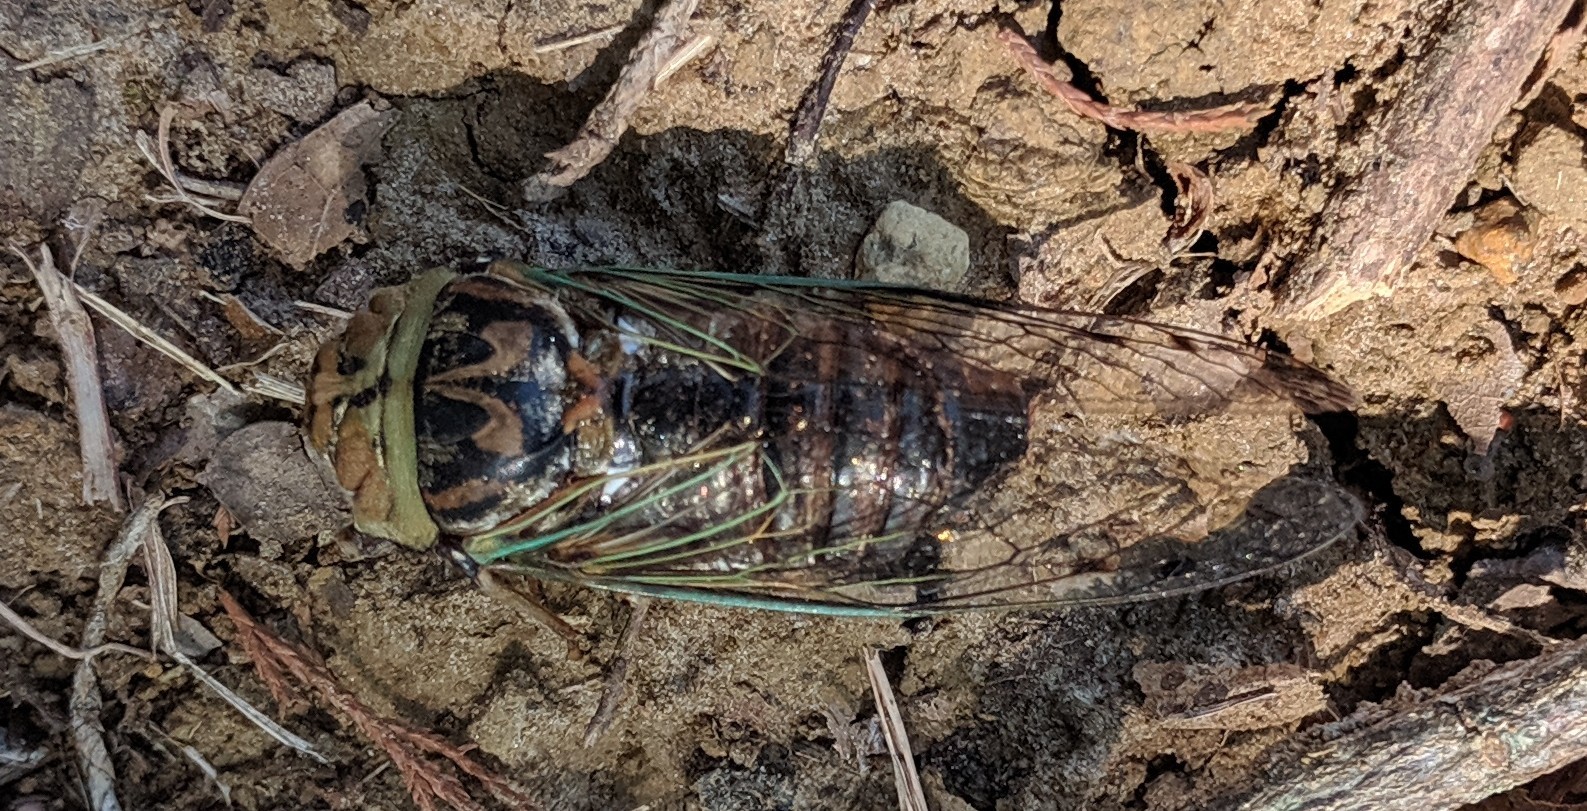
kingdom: Animalia
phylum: Arthropoda
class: Insecta
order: Hemiptera
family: Cicadidae
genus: Megatibicen
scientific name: Megatibicen resh
